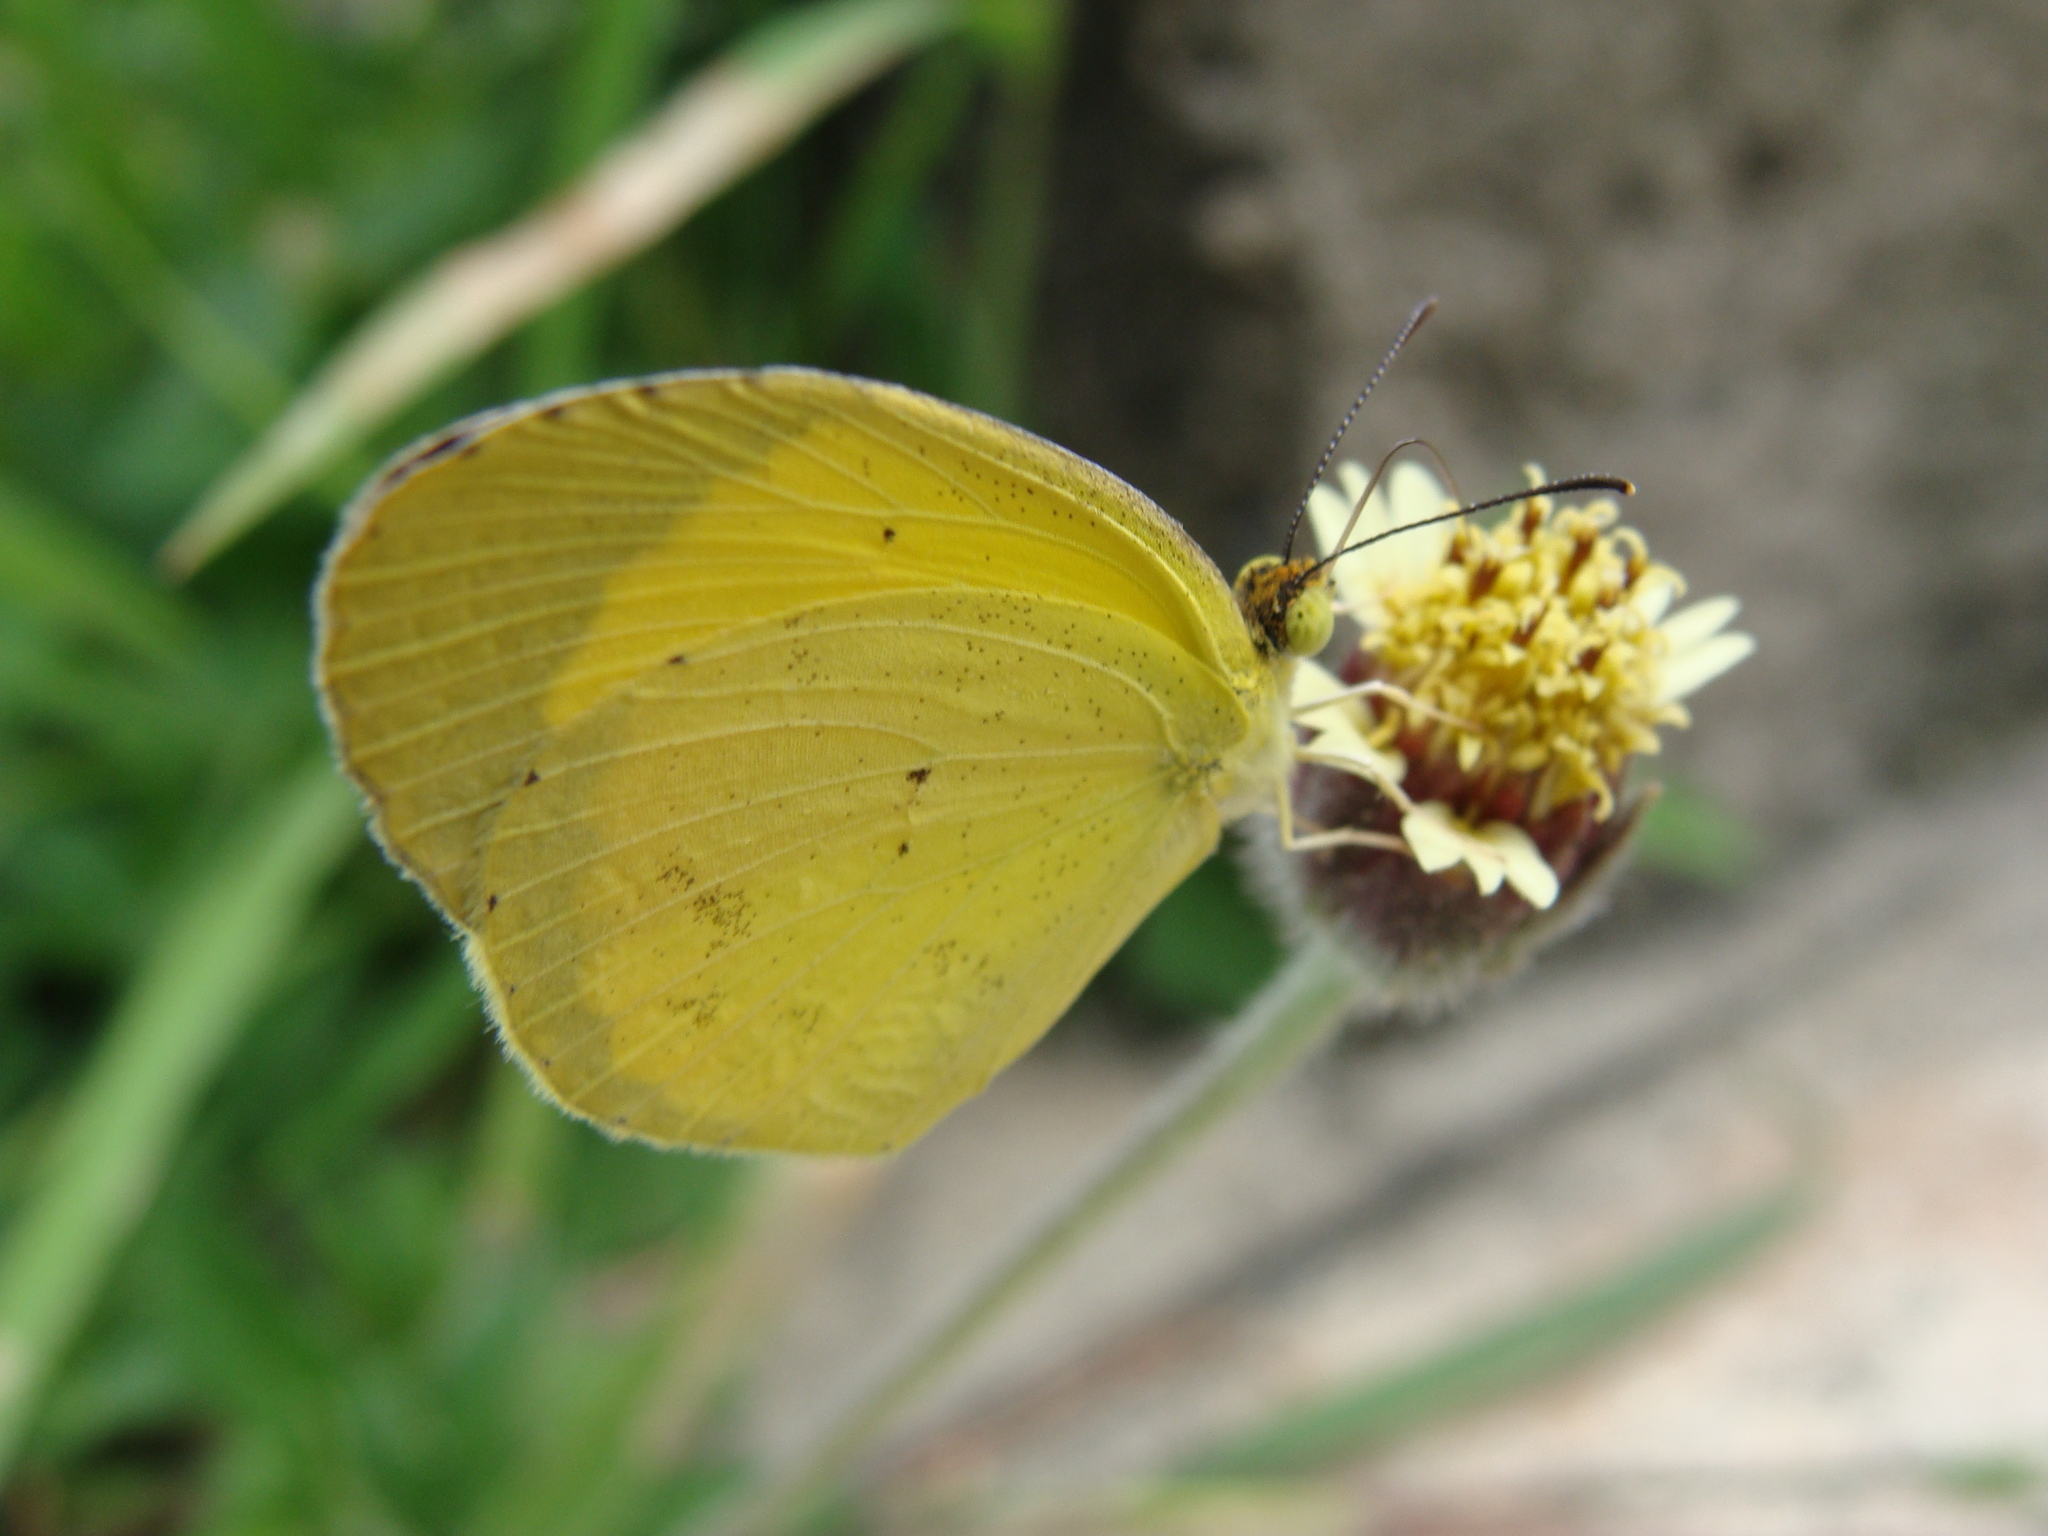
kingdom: Animalia
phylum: Arthropoda
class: Insecta
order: Lepidoptera
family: Pieridae
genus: Pyrisitia
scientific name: Pyrisitia nise
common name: Mimosa yellow
